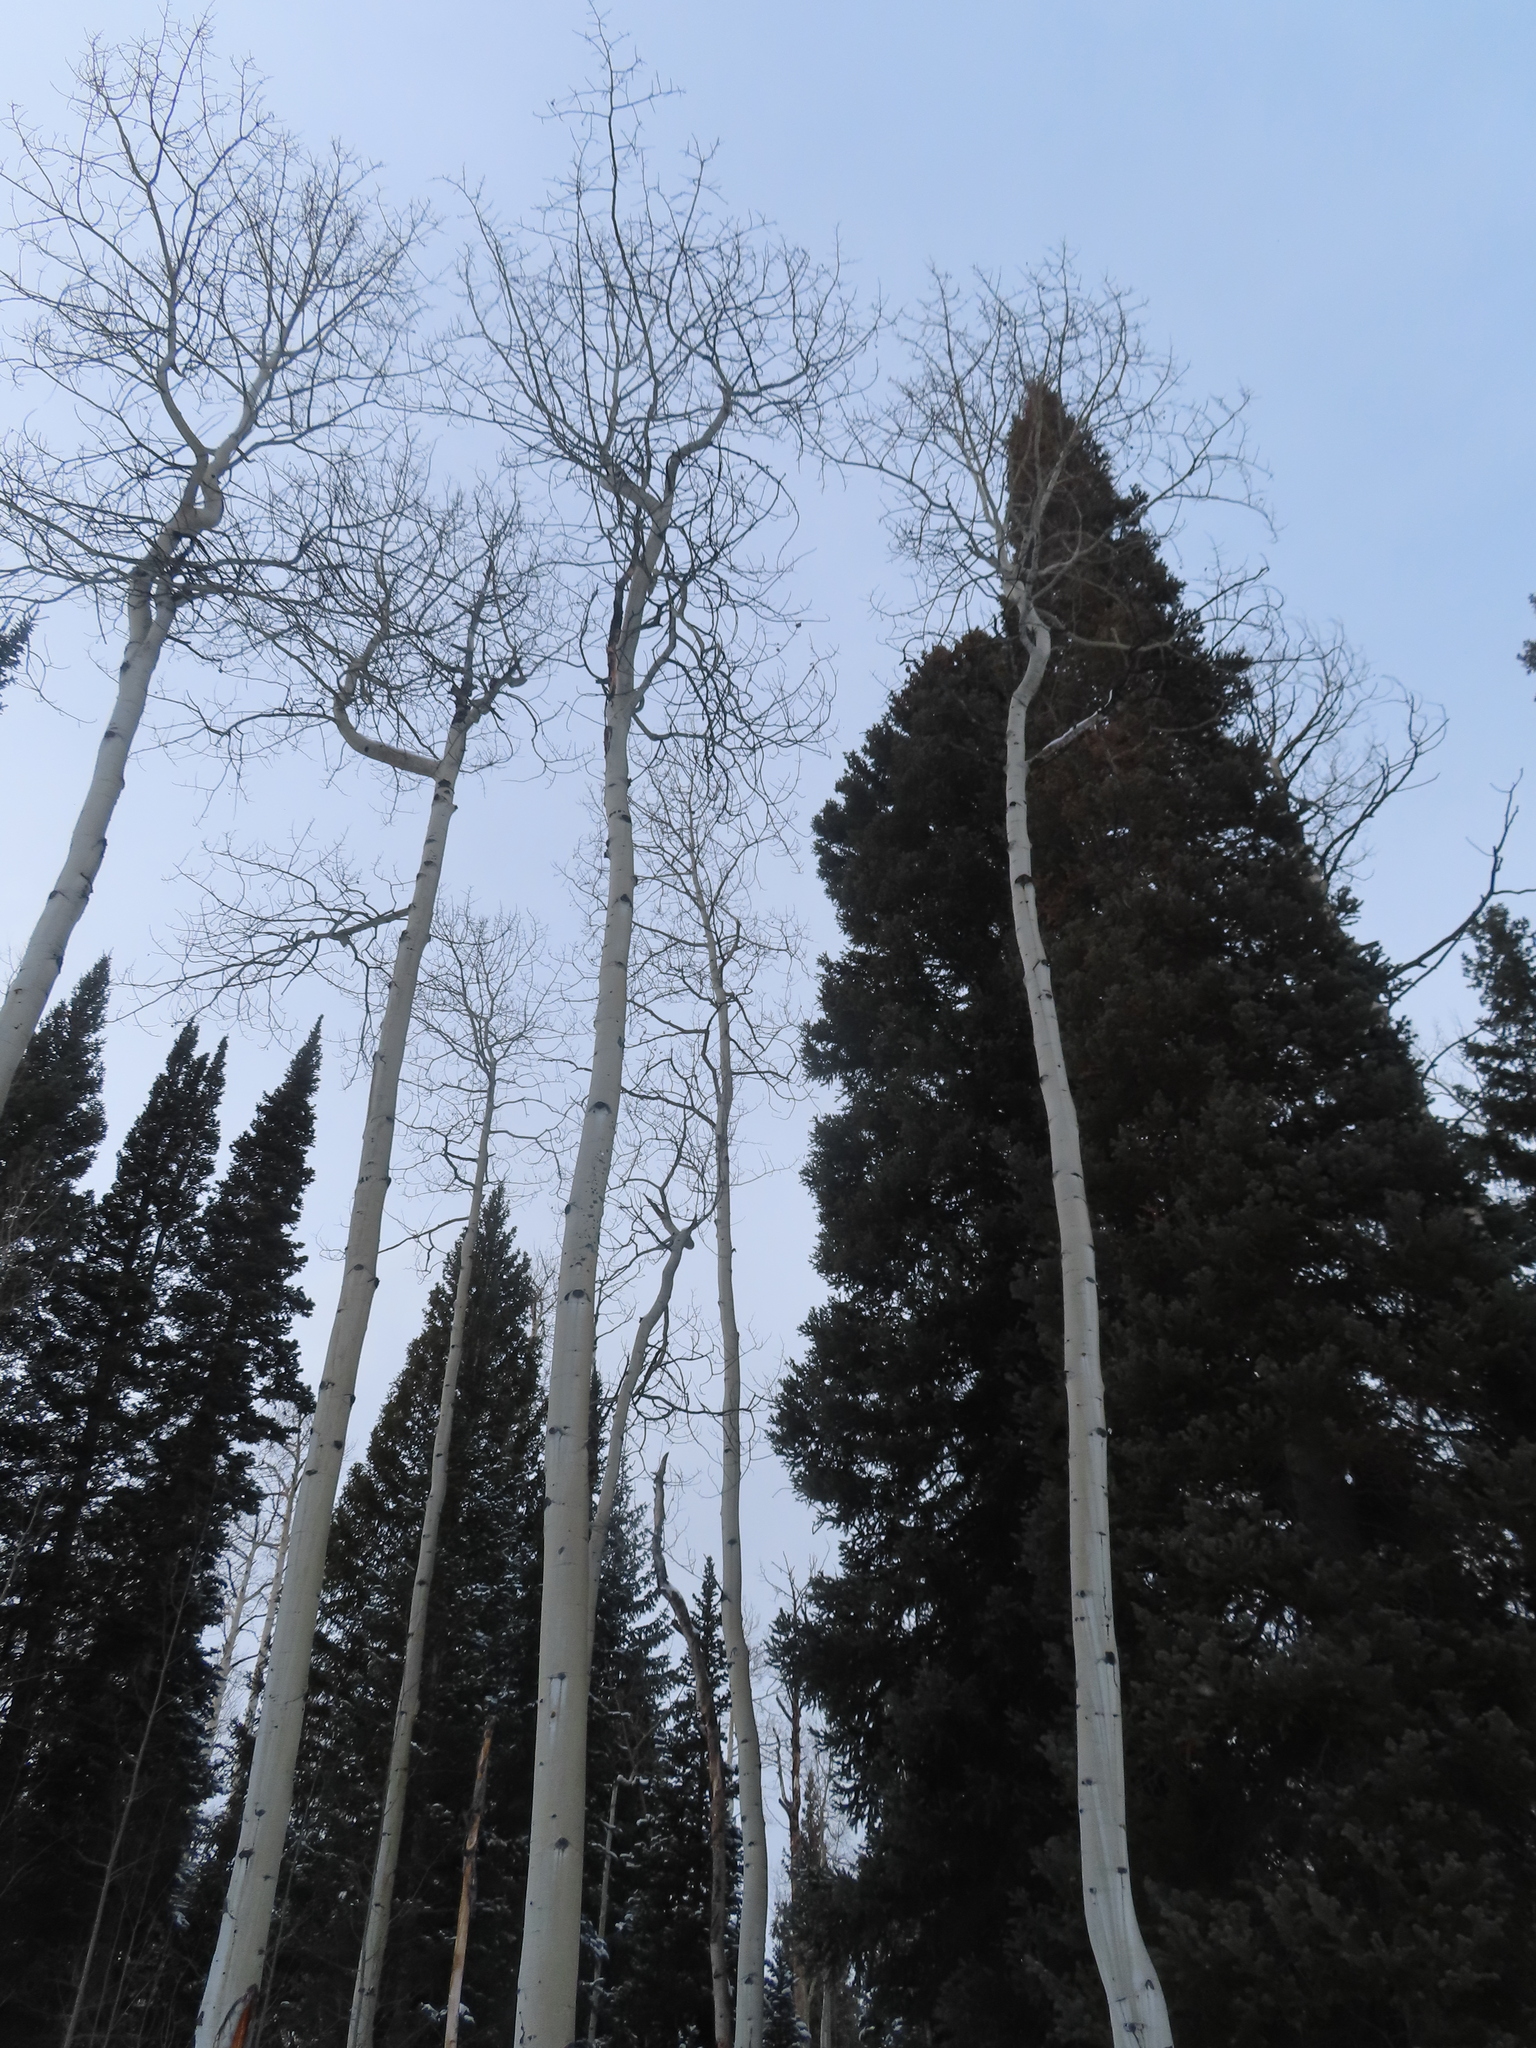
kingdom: Plantae
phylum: Tracheophyta
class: Magnoliopsida
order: Malpighiales
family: Salicaceae
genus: Populus
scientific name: Populus tremuloides
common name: Quaking aspen
